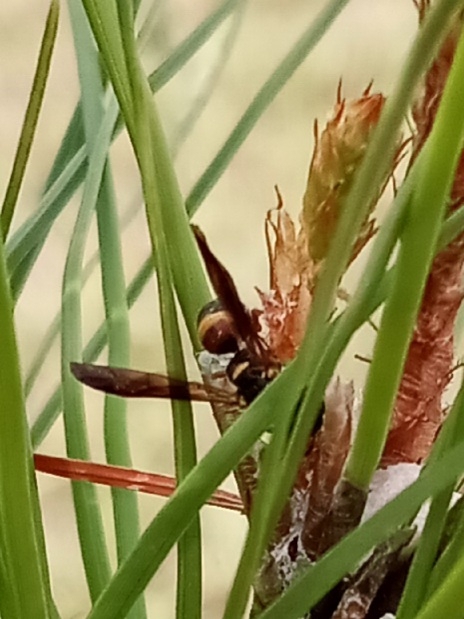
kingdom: Animalia
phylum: Arthropoda
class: Insecta
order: Hymenoptera
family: Eumenidae
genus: Parancistrocerus
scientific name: Parancistrocerus
